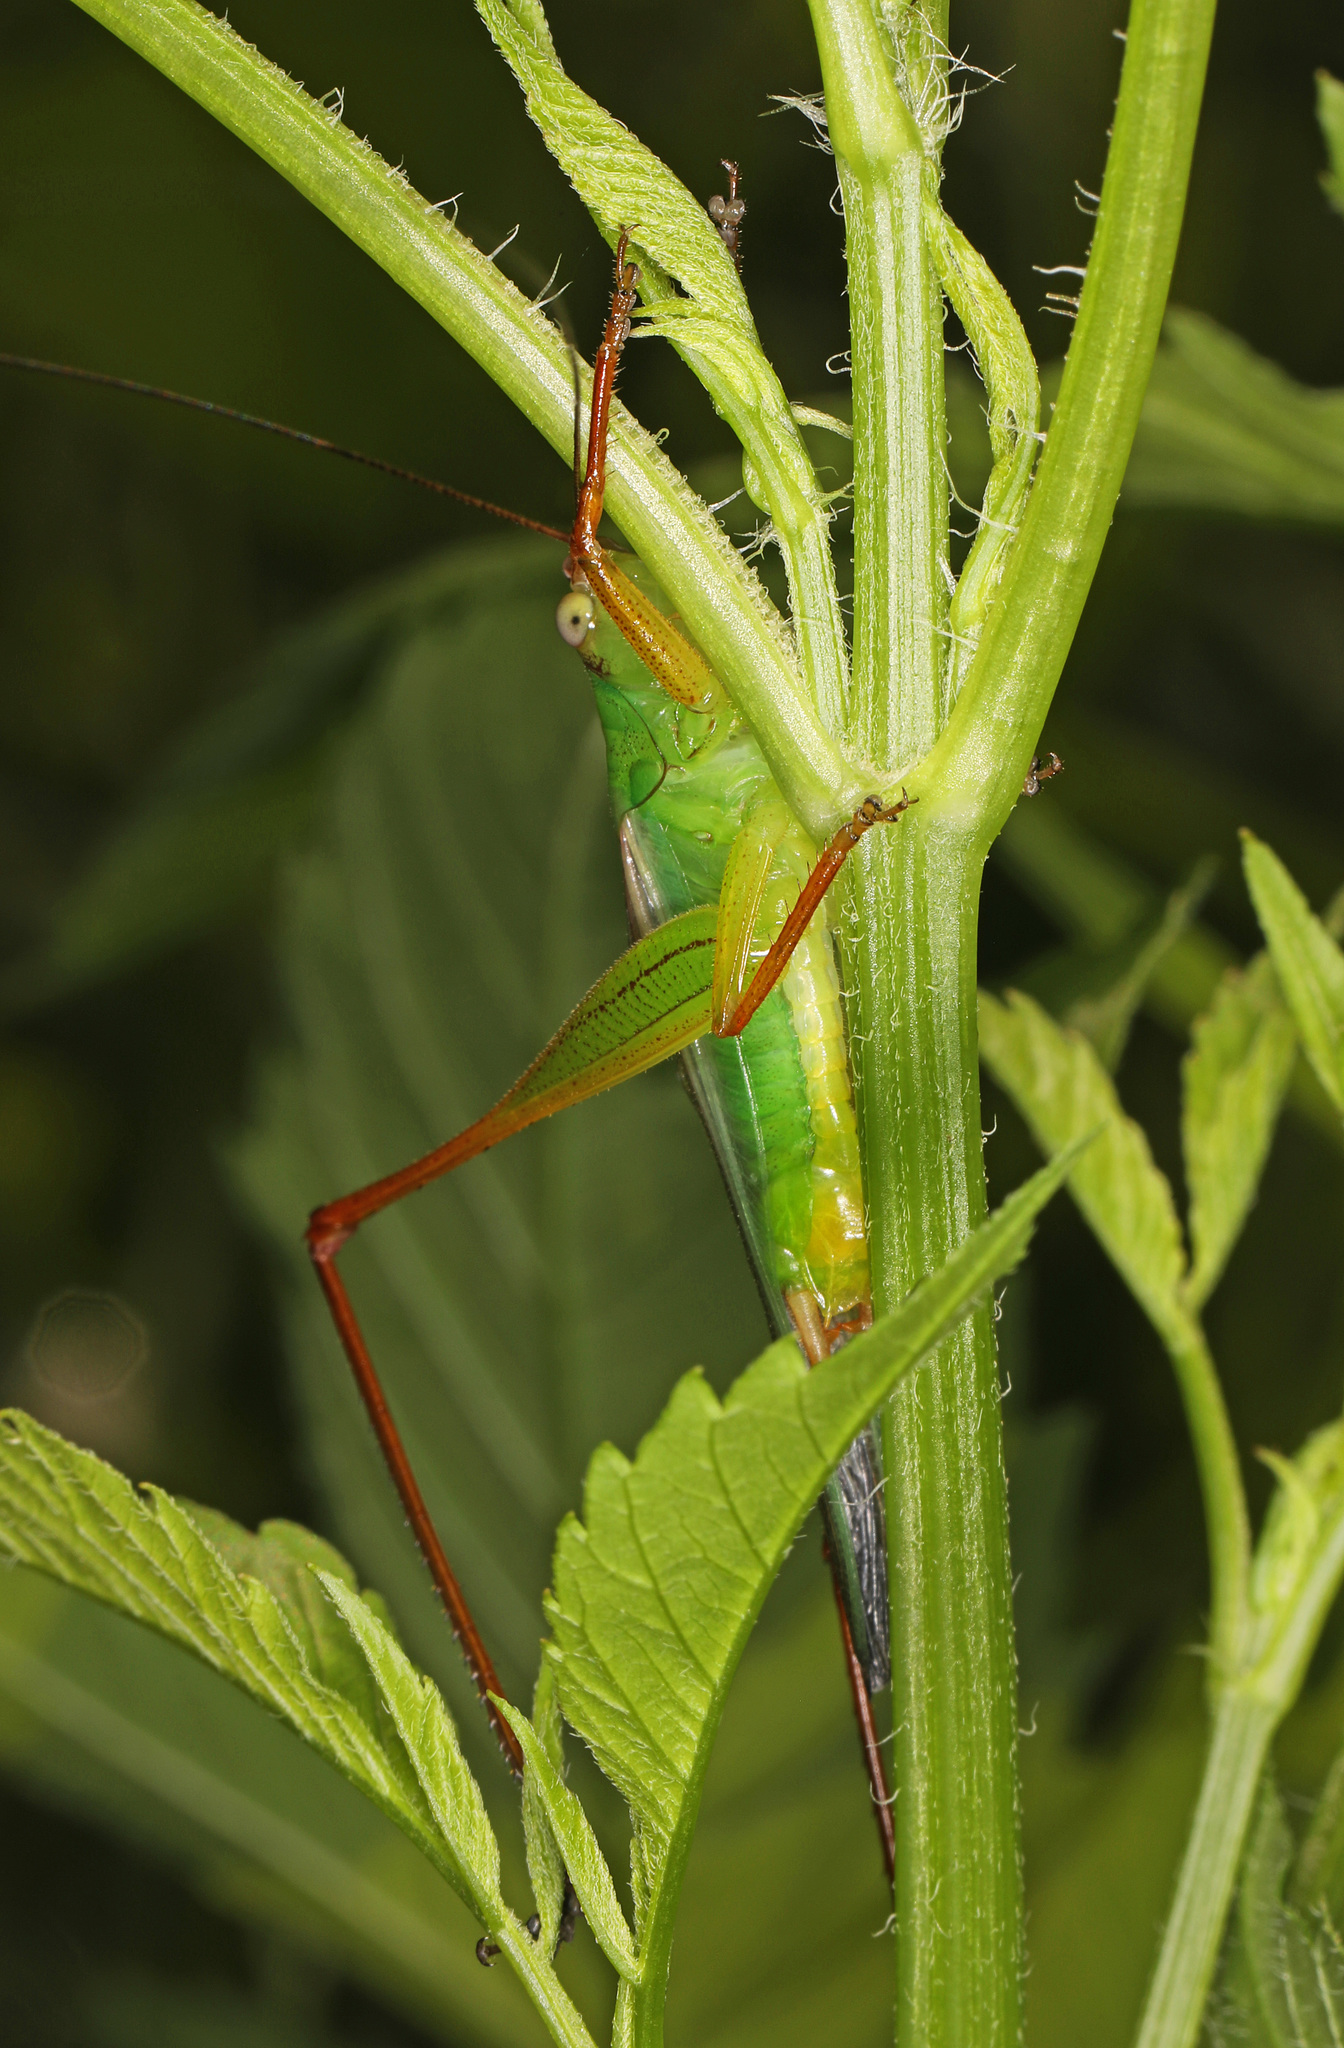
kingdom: Animalia
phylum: Arthropoda
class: Insecta
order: Orthoptera
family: Tettigoniidae
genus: Orchelimum
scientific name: Orchelimum pulchellum
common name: Handsome meadow katydid
